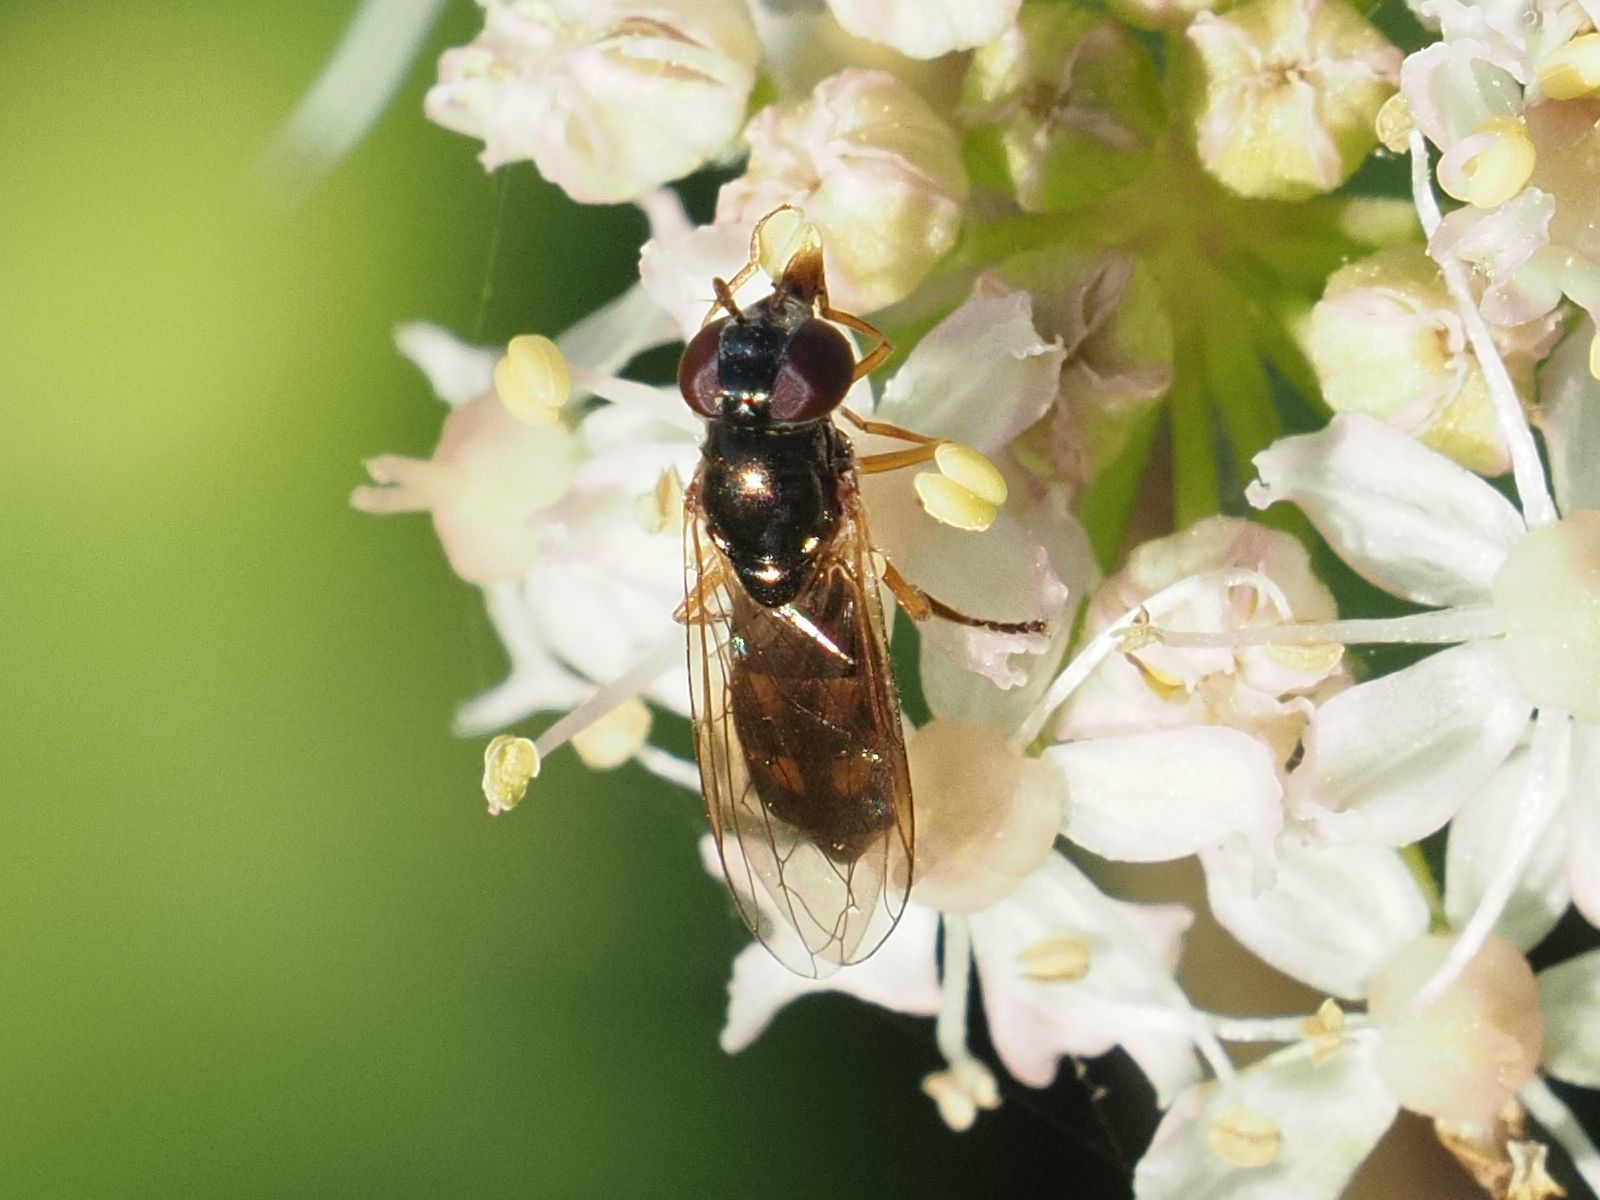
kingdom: Animalia
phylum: Arthropoda
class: Insecta
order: Diptera
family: Syrphidae
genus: Melanostoma
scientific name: Melanostoma mellina
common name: Hover fly
